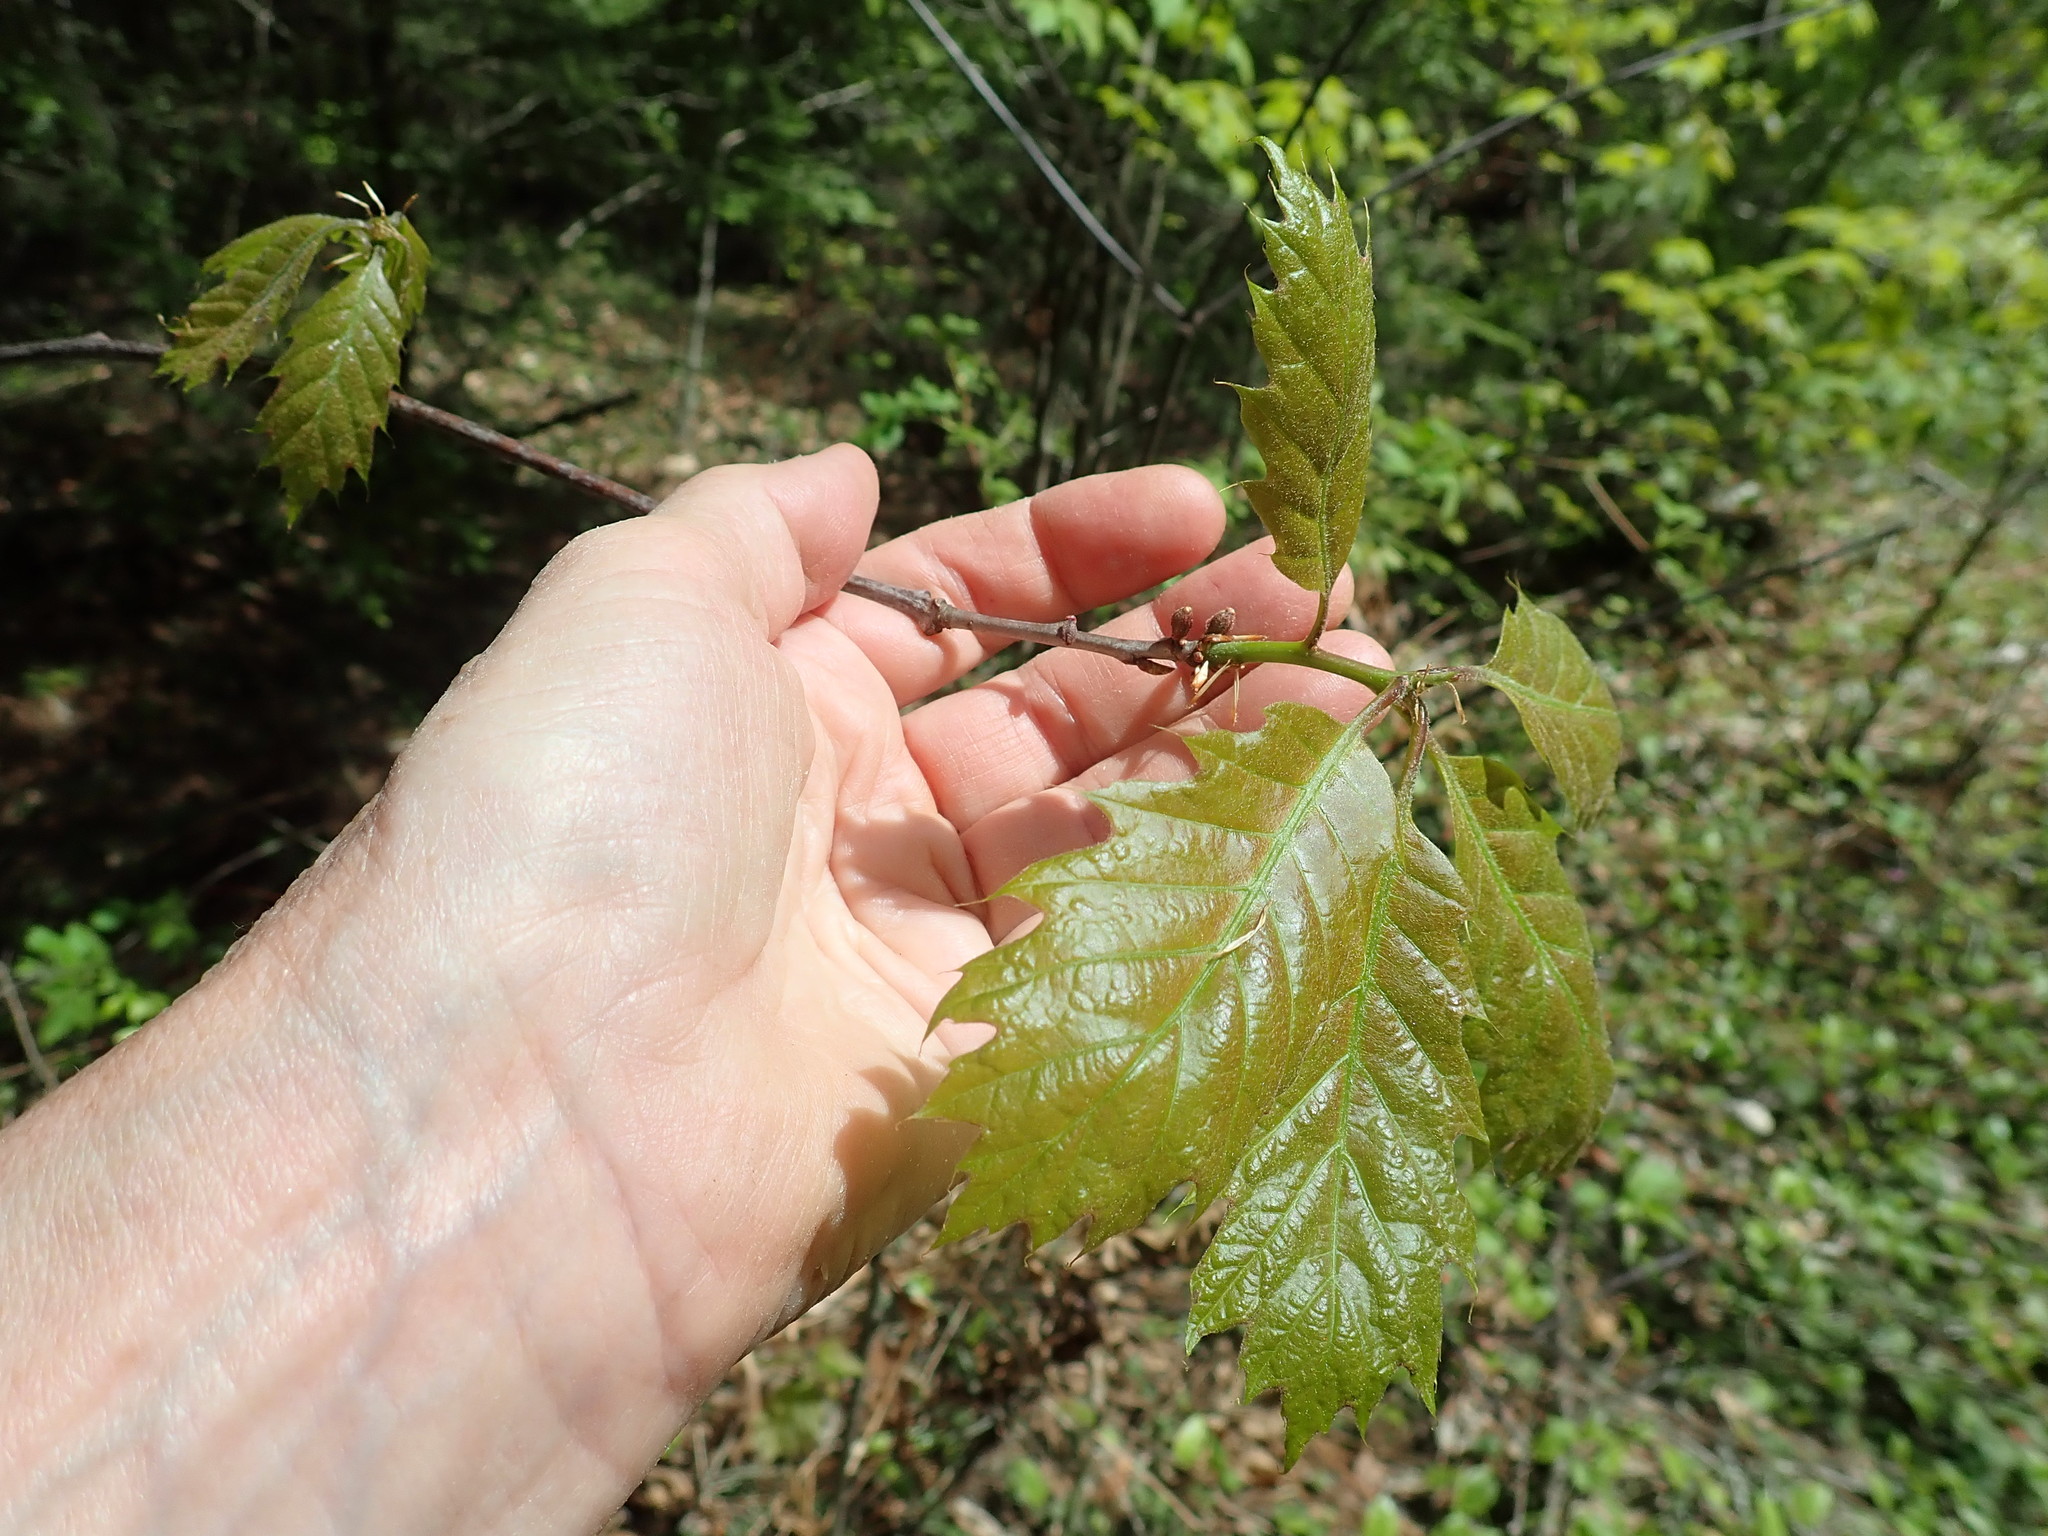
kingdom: Animalia
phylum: Arthropoda
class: Insecta
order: Hymenoptera
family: Cynipidae
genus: Callirhytis
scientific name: Callirhytis
